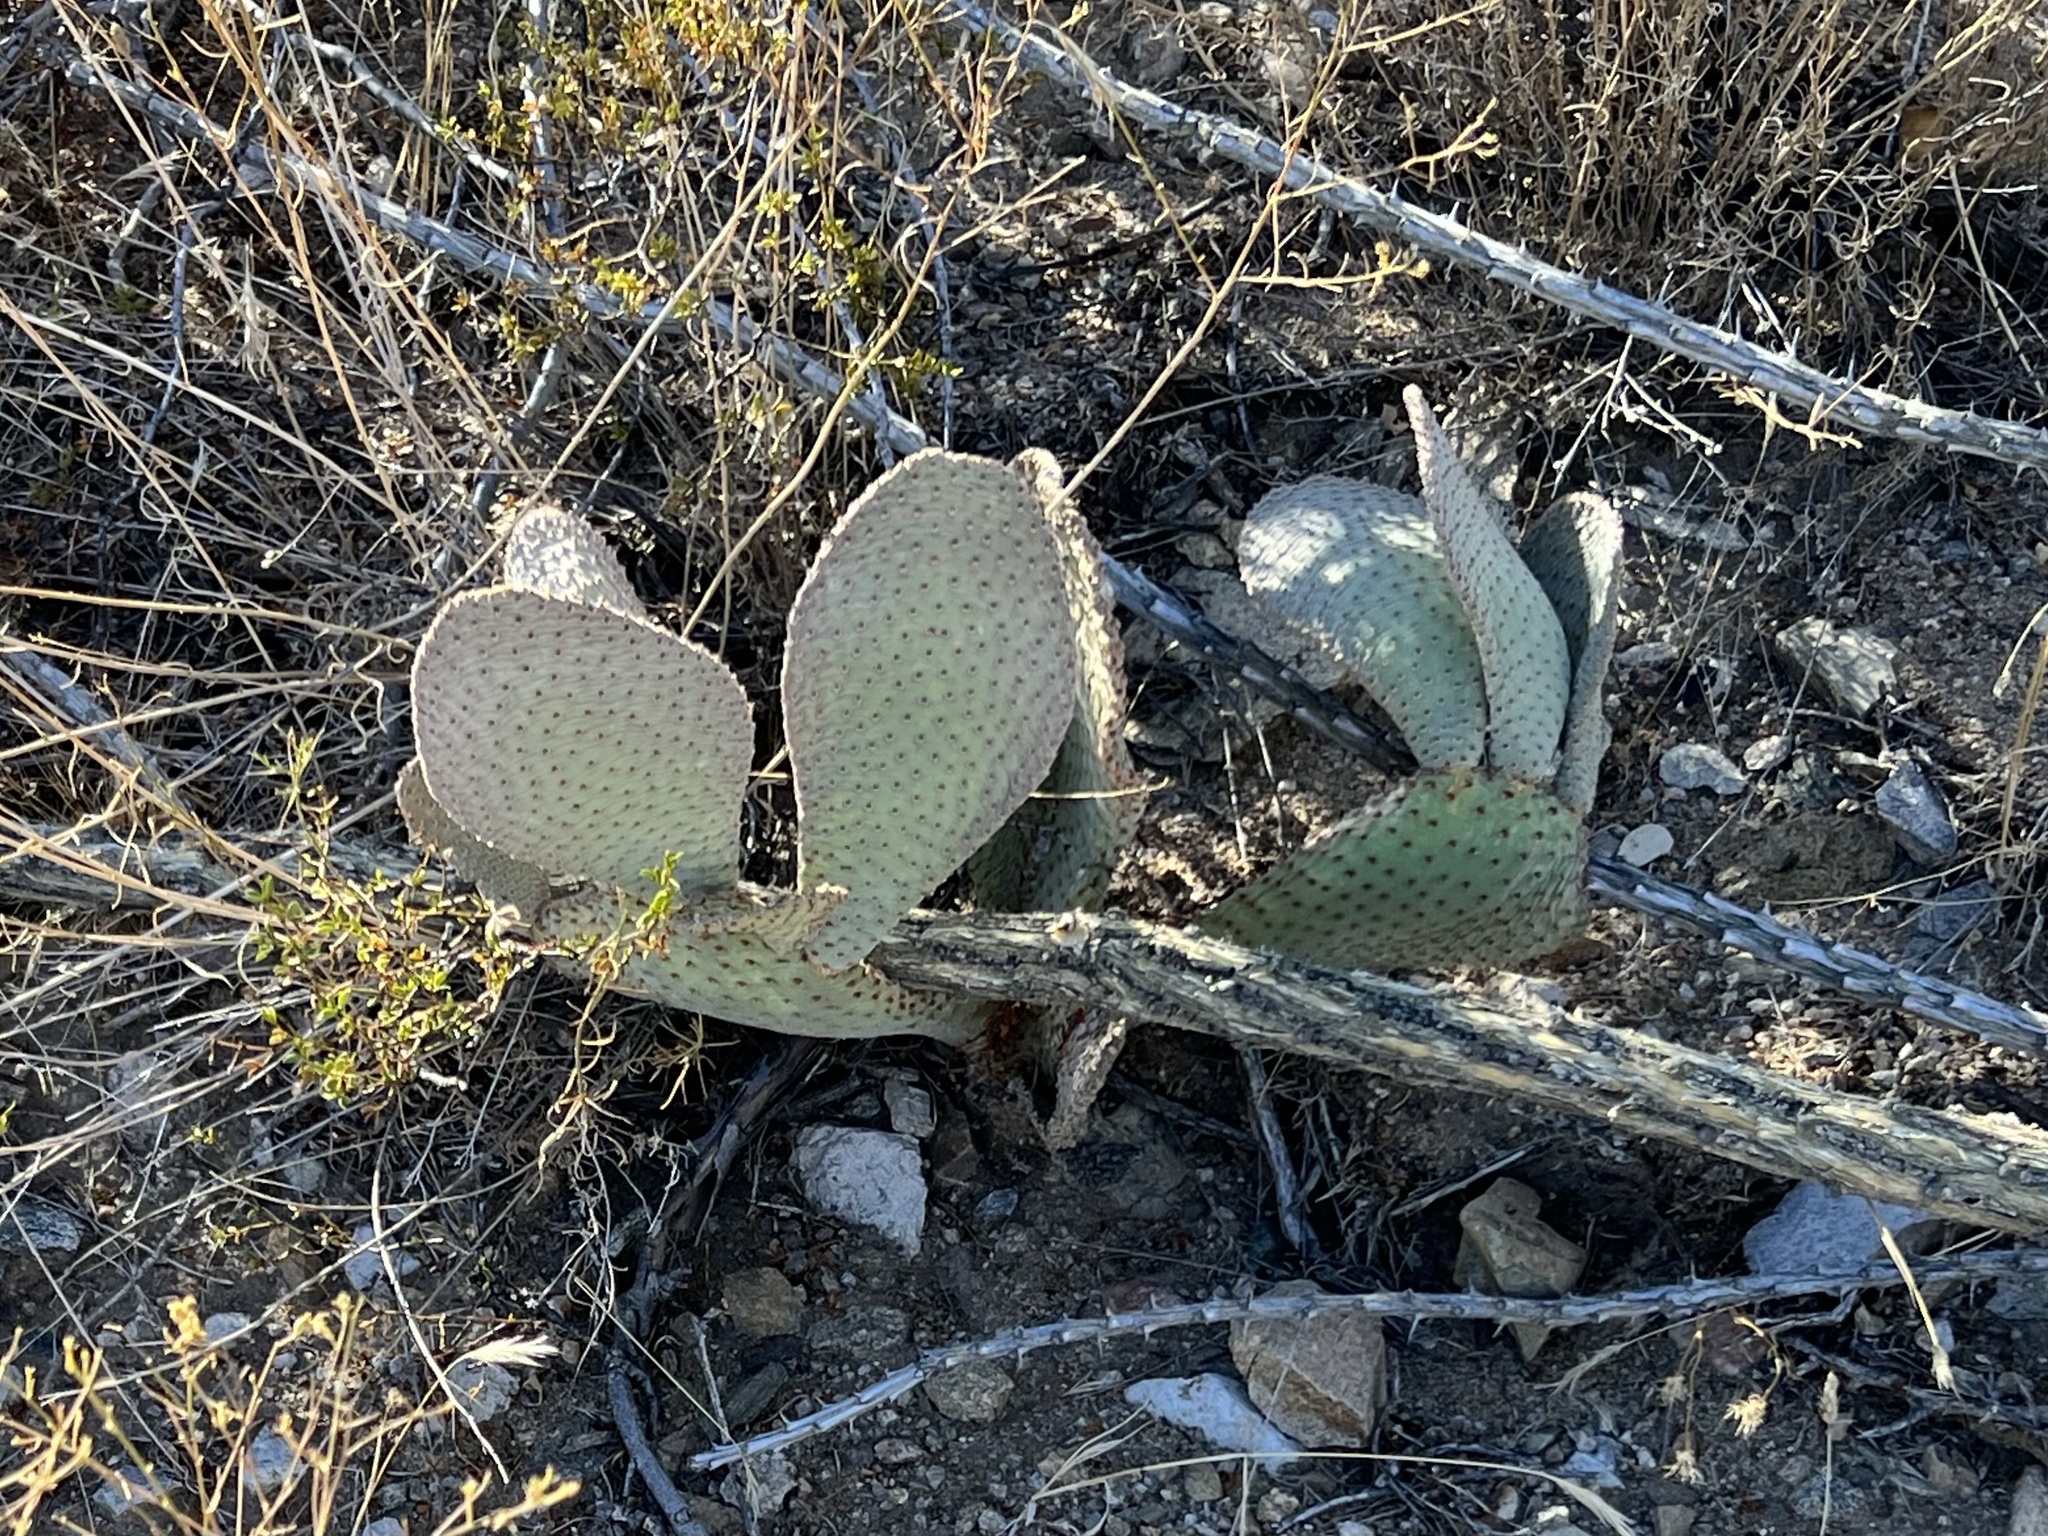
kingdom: Plantae
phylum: Tracheophyta
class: Magnoliopsida
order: Caryophyllales
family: Cactaceae
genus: Opuntia
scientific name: Opuntia basilaris
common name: Beavertail prickly-pear
